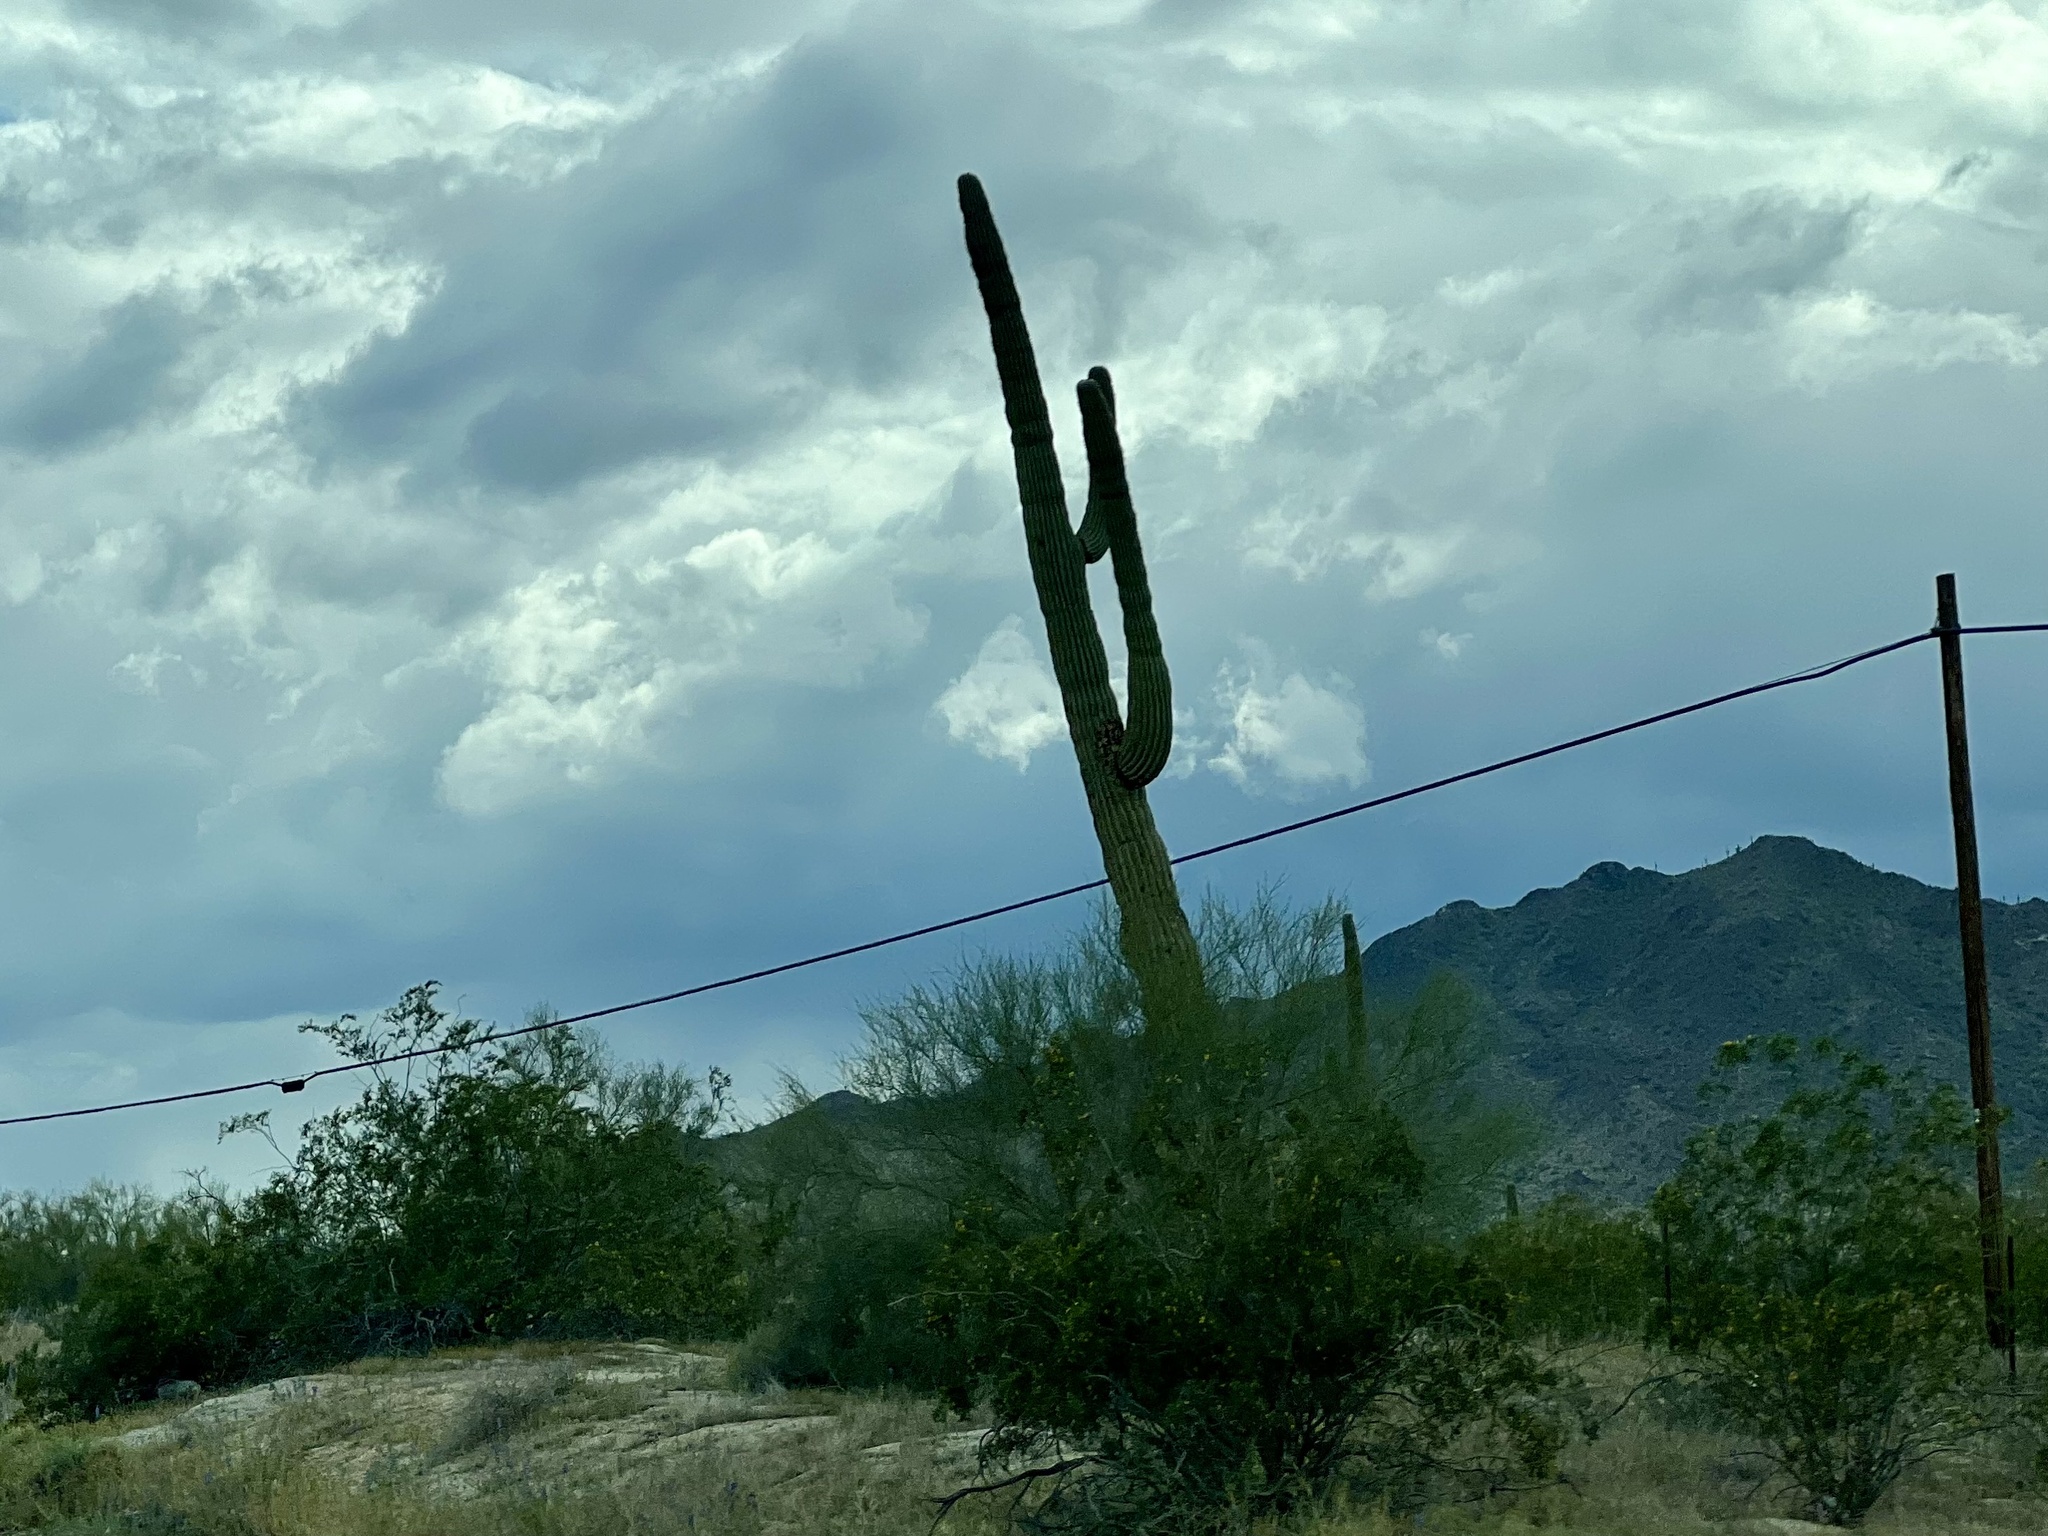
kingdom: Plantae
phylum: Tracheophyta
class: Magnoliopsida
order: Caryophyllales
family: Cactaceae
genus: Carnegiea
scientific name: Carnegiea gigantea
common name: Saguaro
